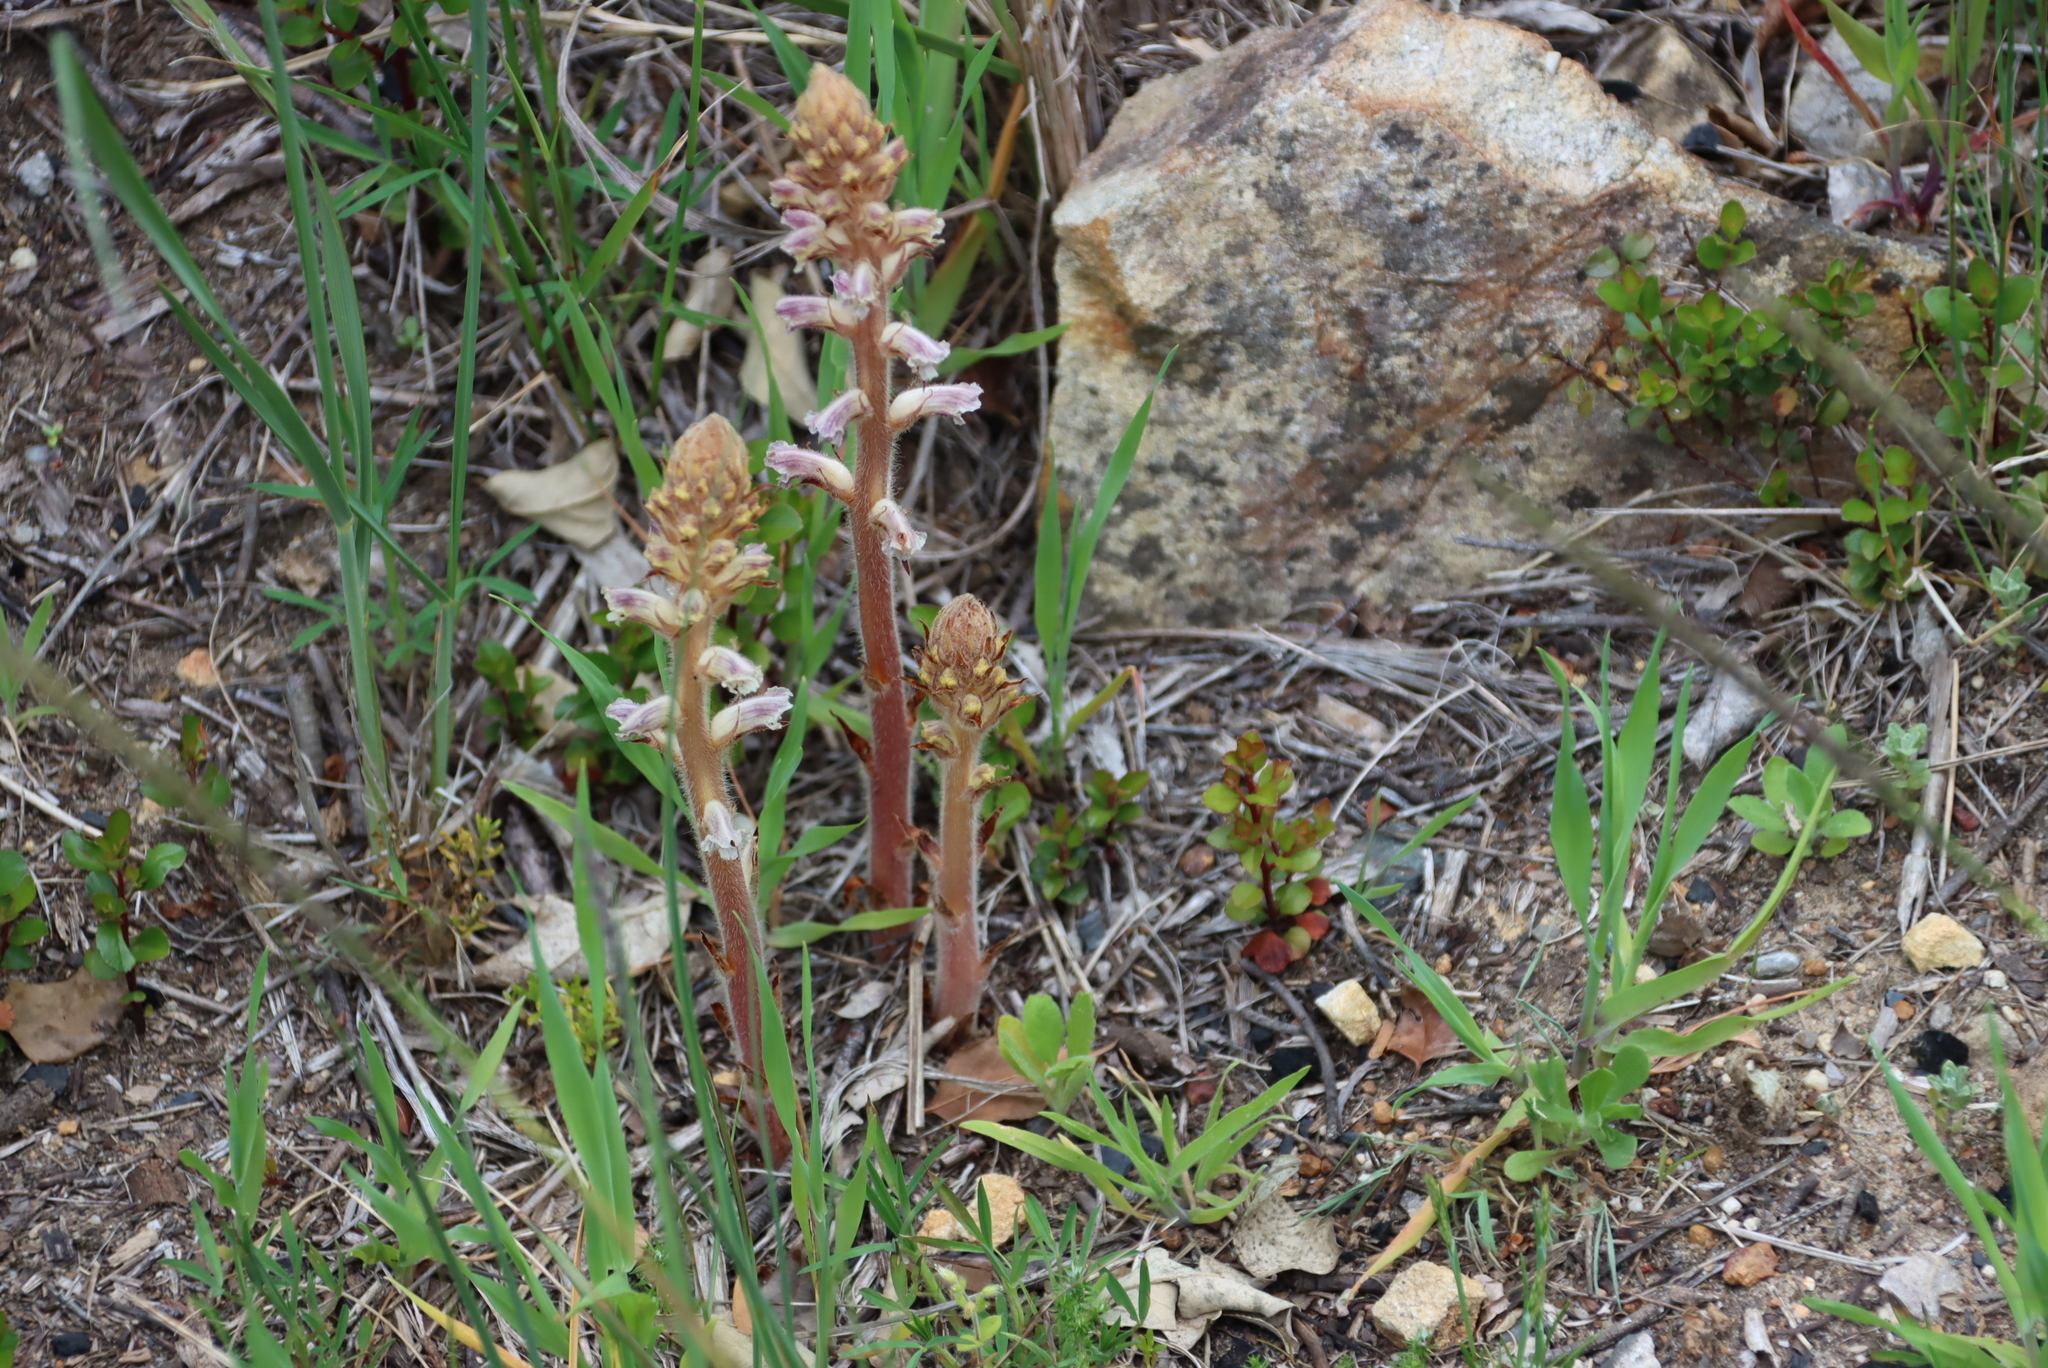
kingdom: Plantae
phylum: Tracheophyta
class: Magnoliopsida
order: Lamiales
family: Orobanchaceae
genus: Orobanche
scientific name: Orobanche minor
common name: Common broomrape
